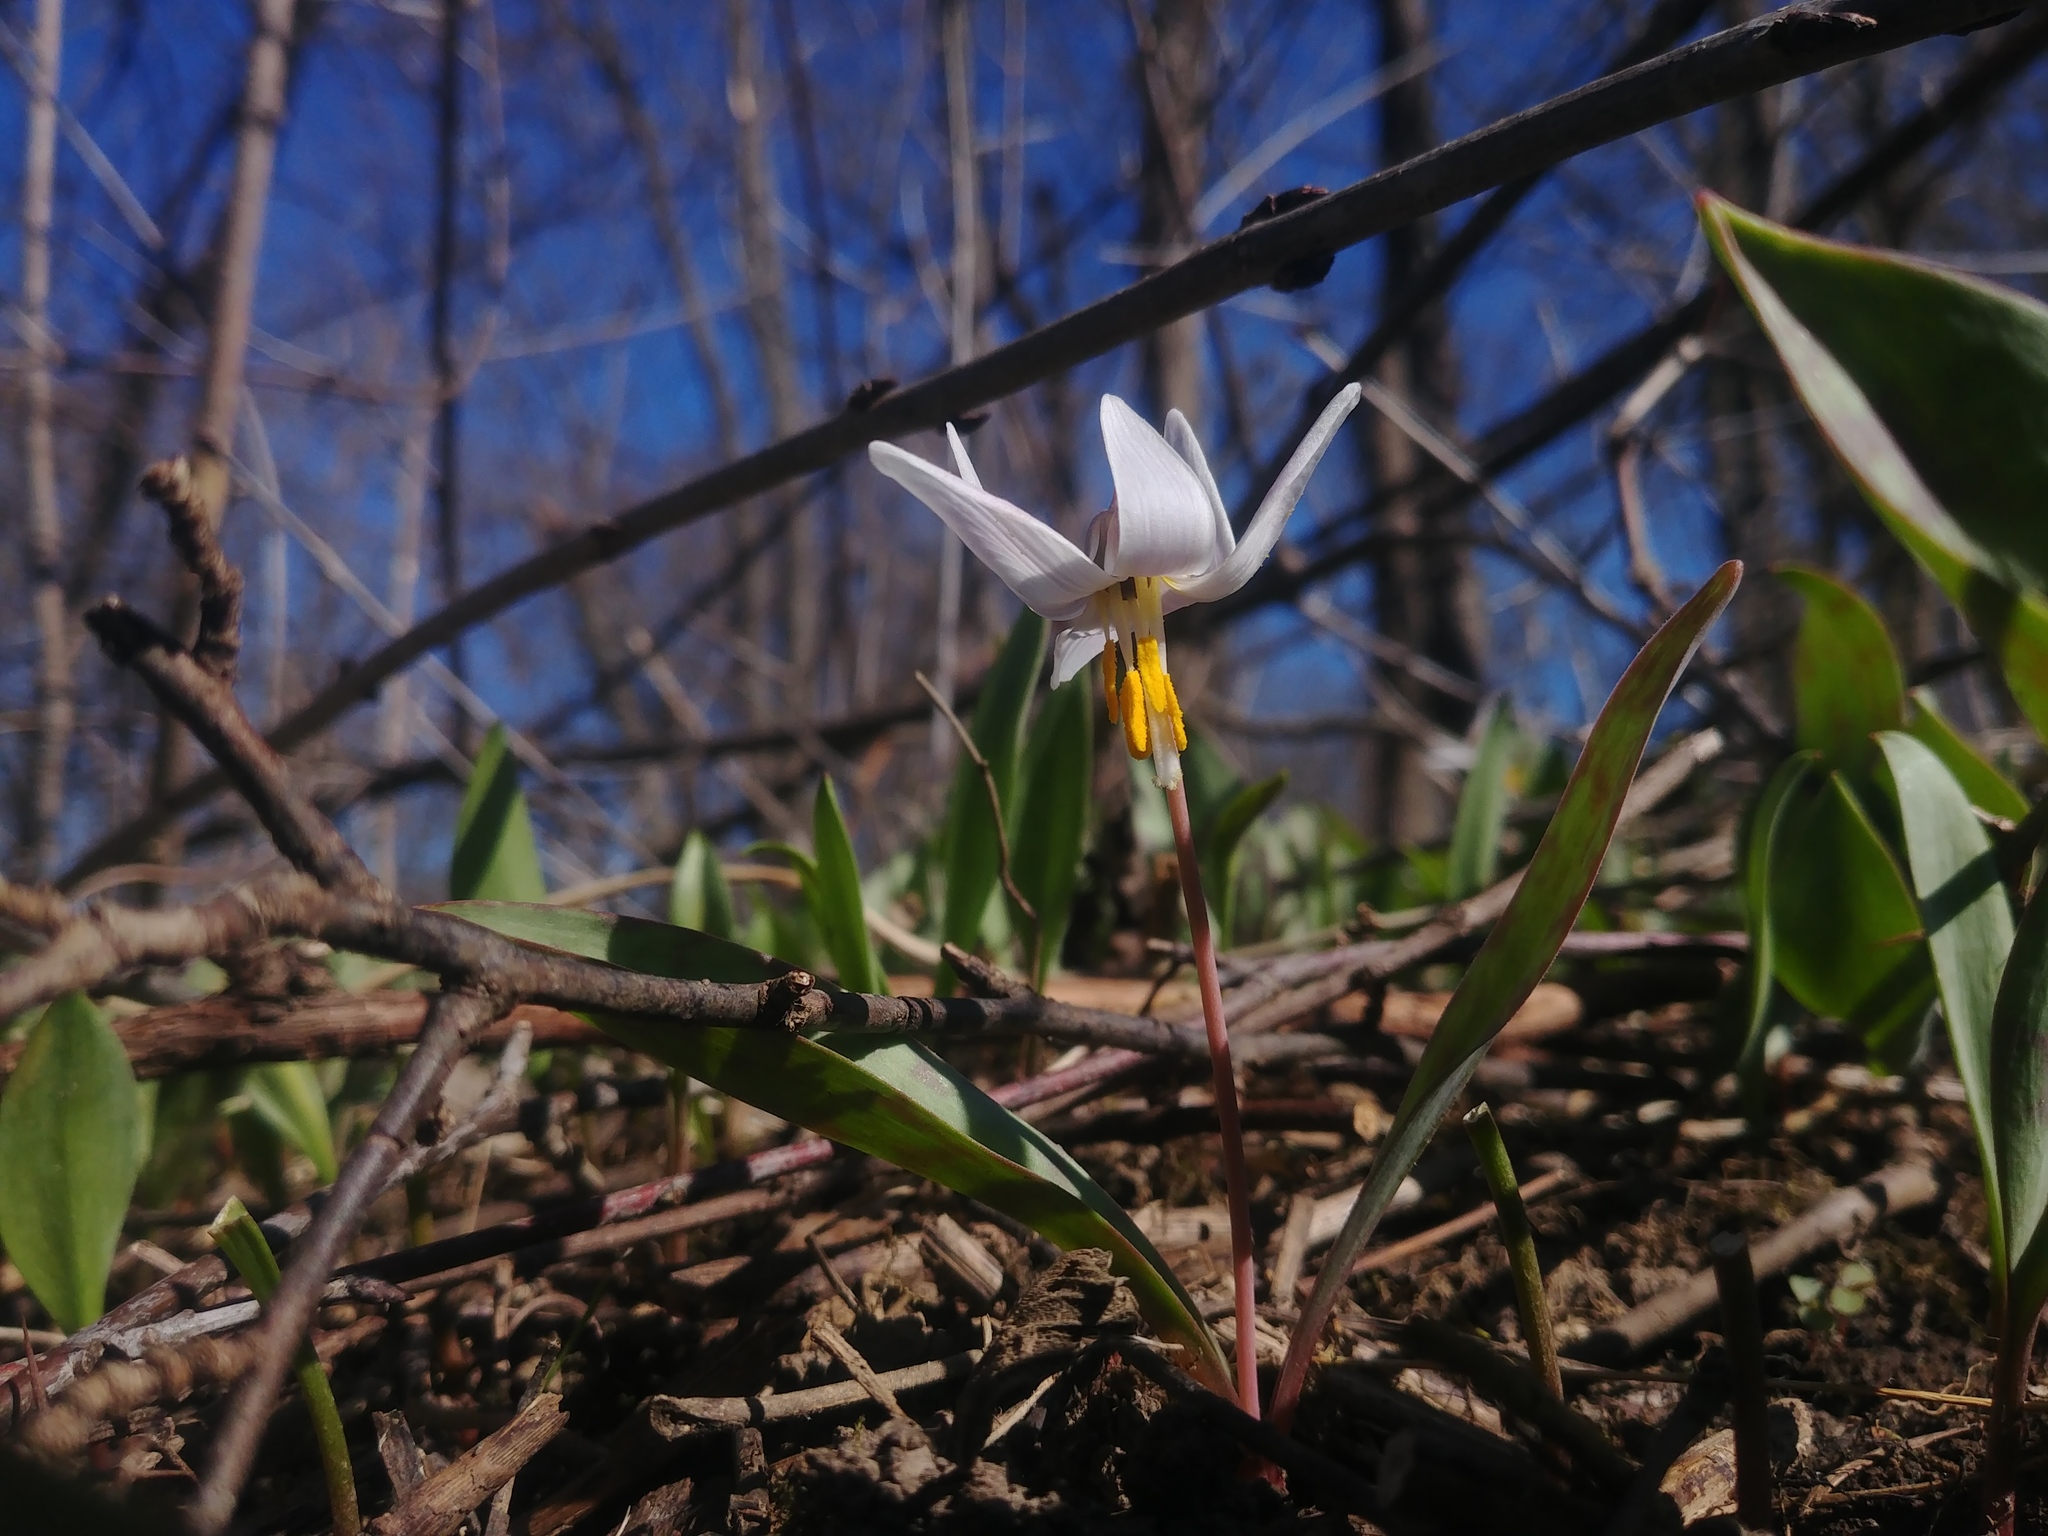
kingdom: Plantae
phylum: Tracheophyta
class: Liliopsida
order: Liliales
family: Liliaceae
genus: Erythronium
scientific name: Erythronium albidum
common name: White trout-lily
